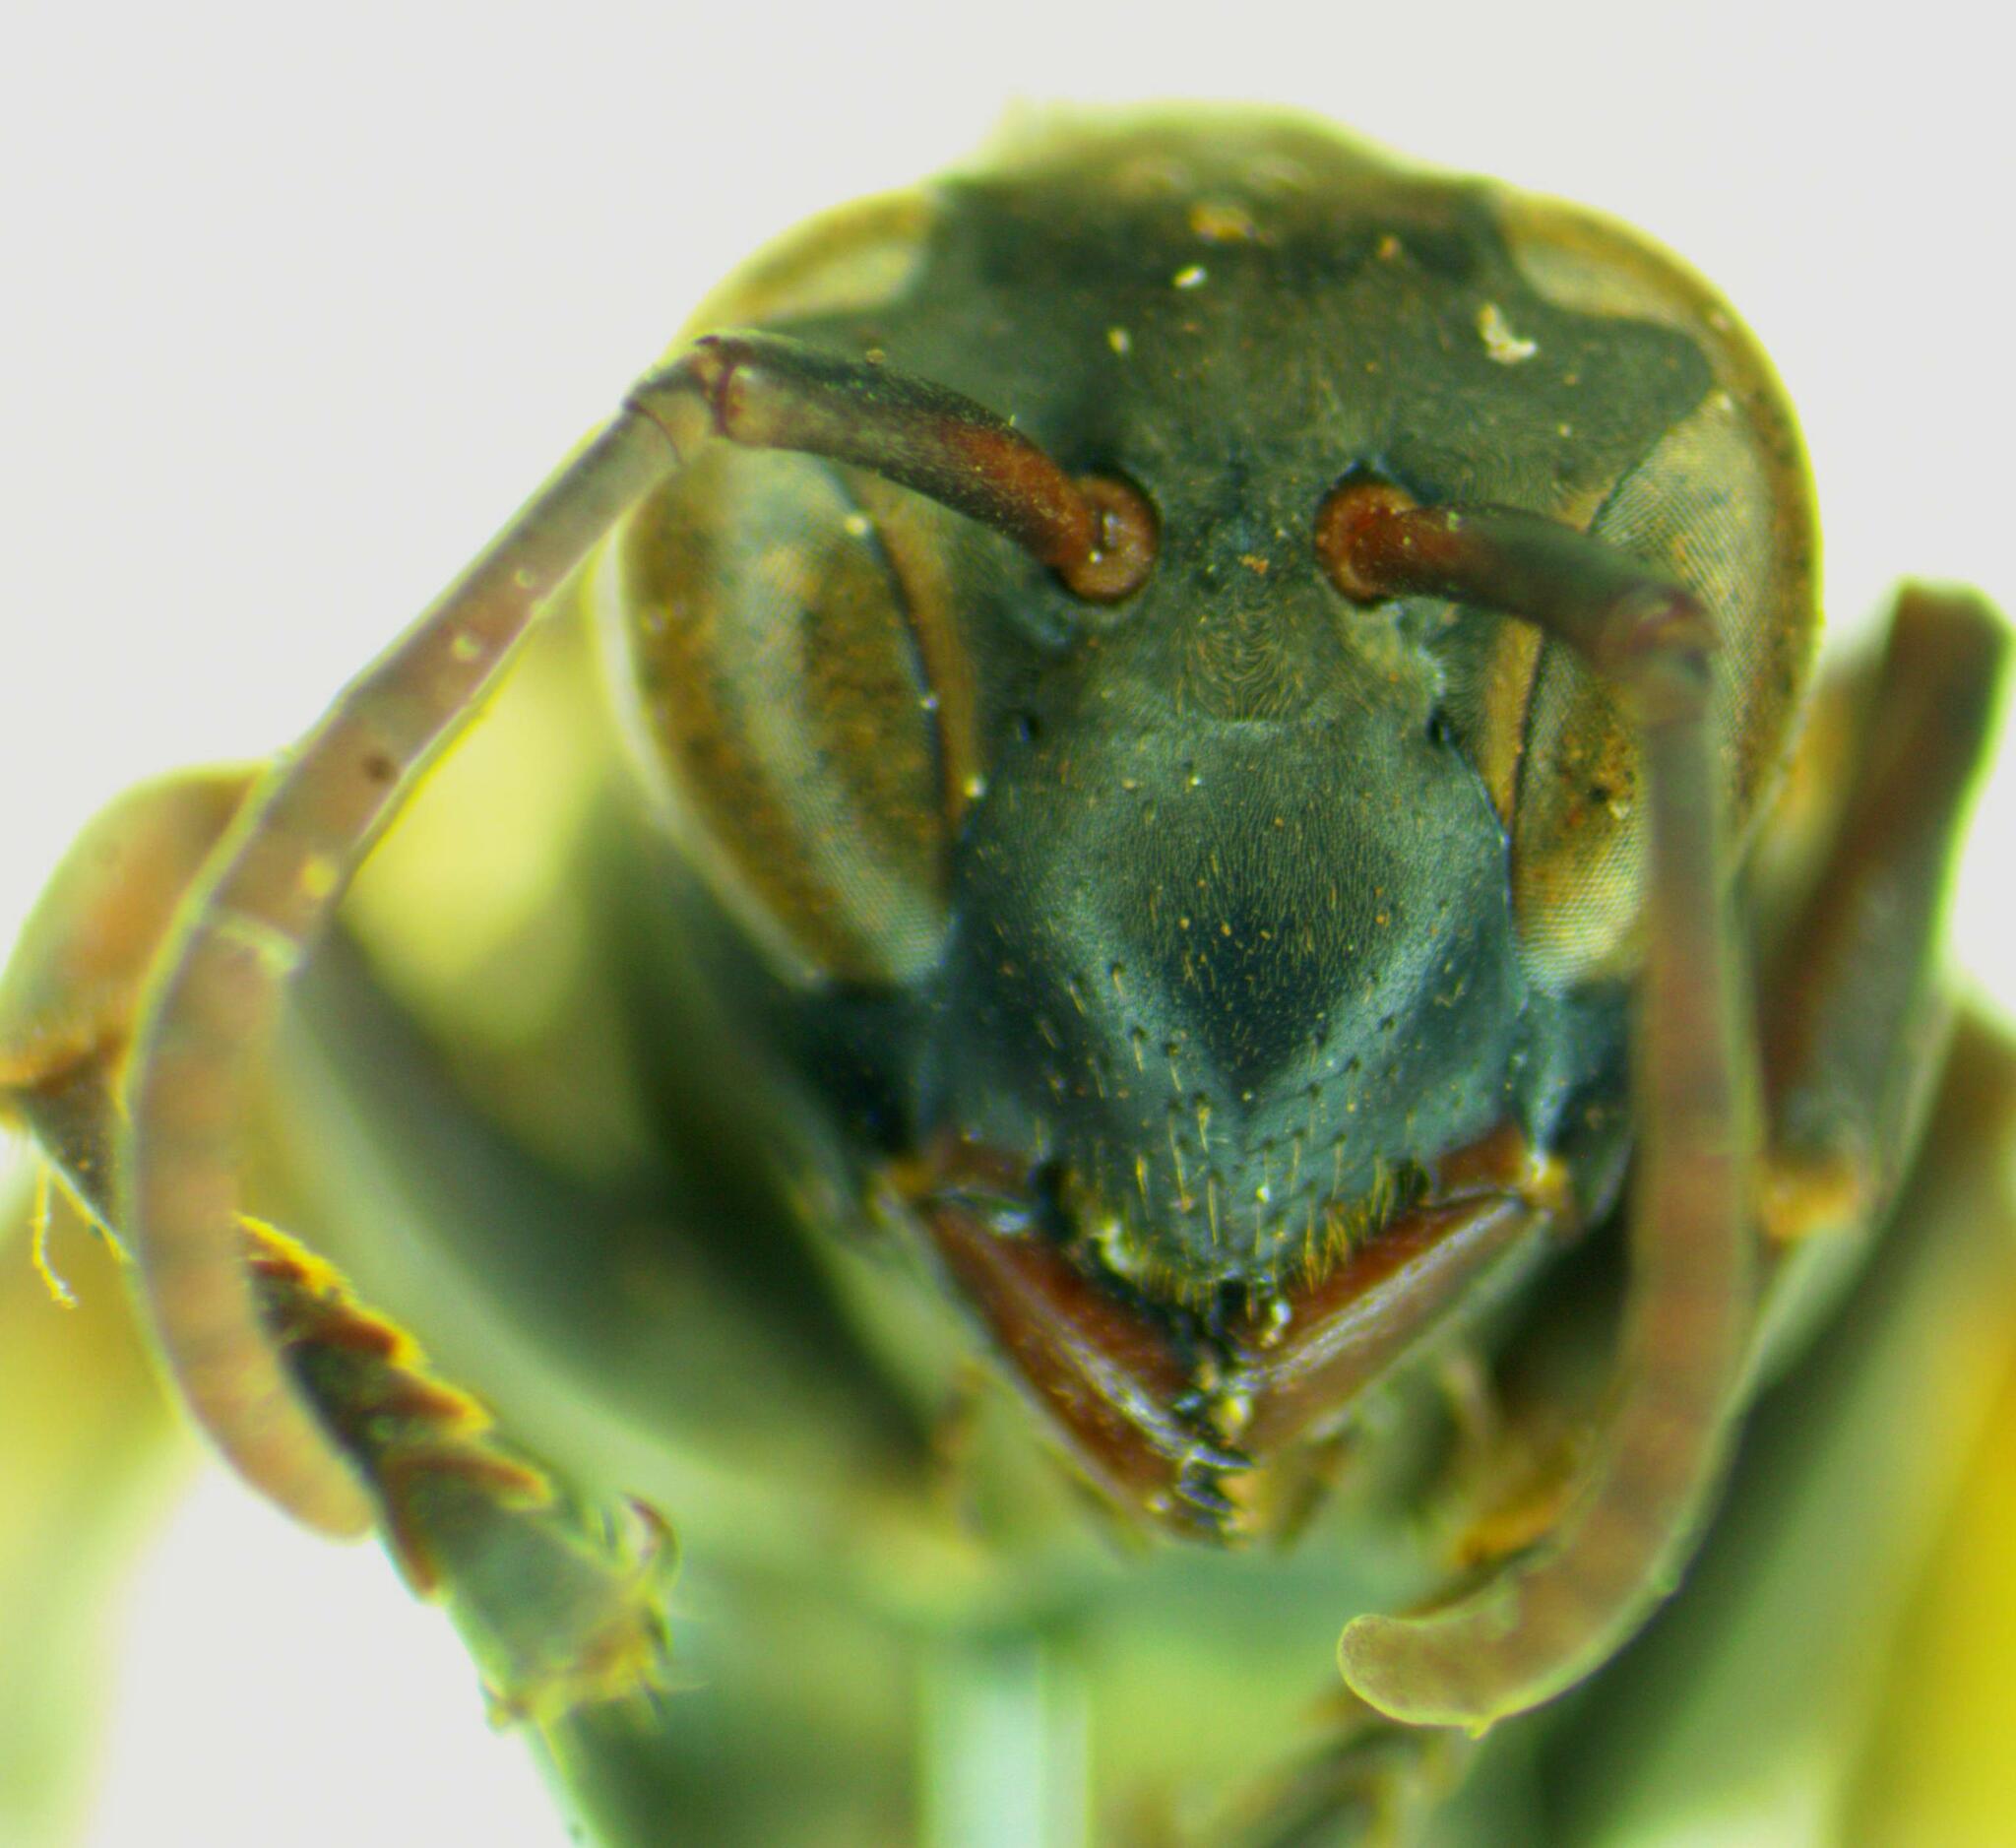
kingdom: Animalia
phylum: Arthropoda
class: Insecta
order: Hymenoptera
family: Eumenidae
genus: Polistes
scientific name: Polistes deceptor
